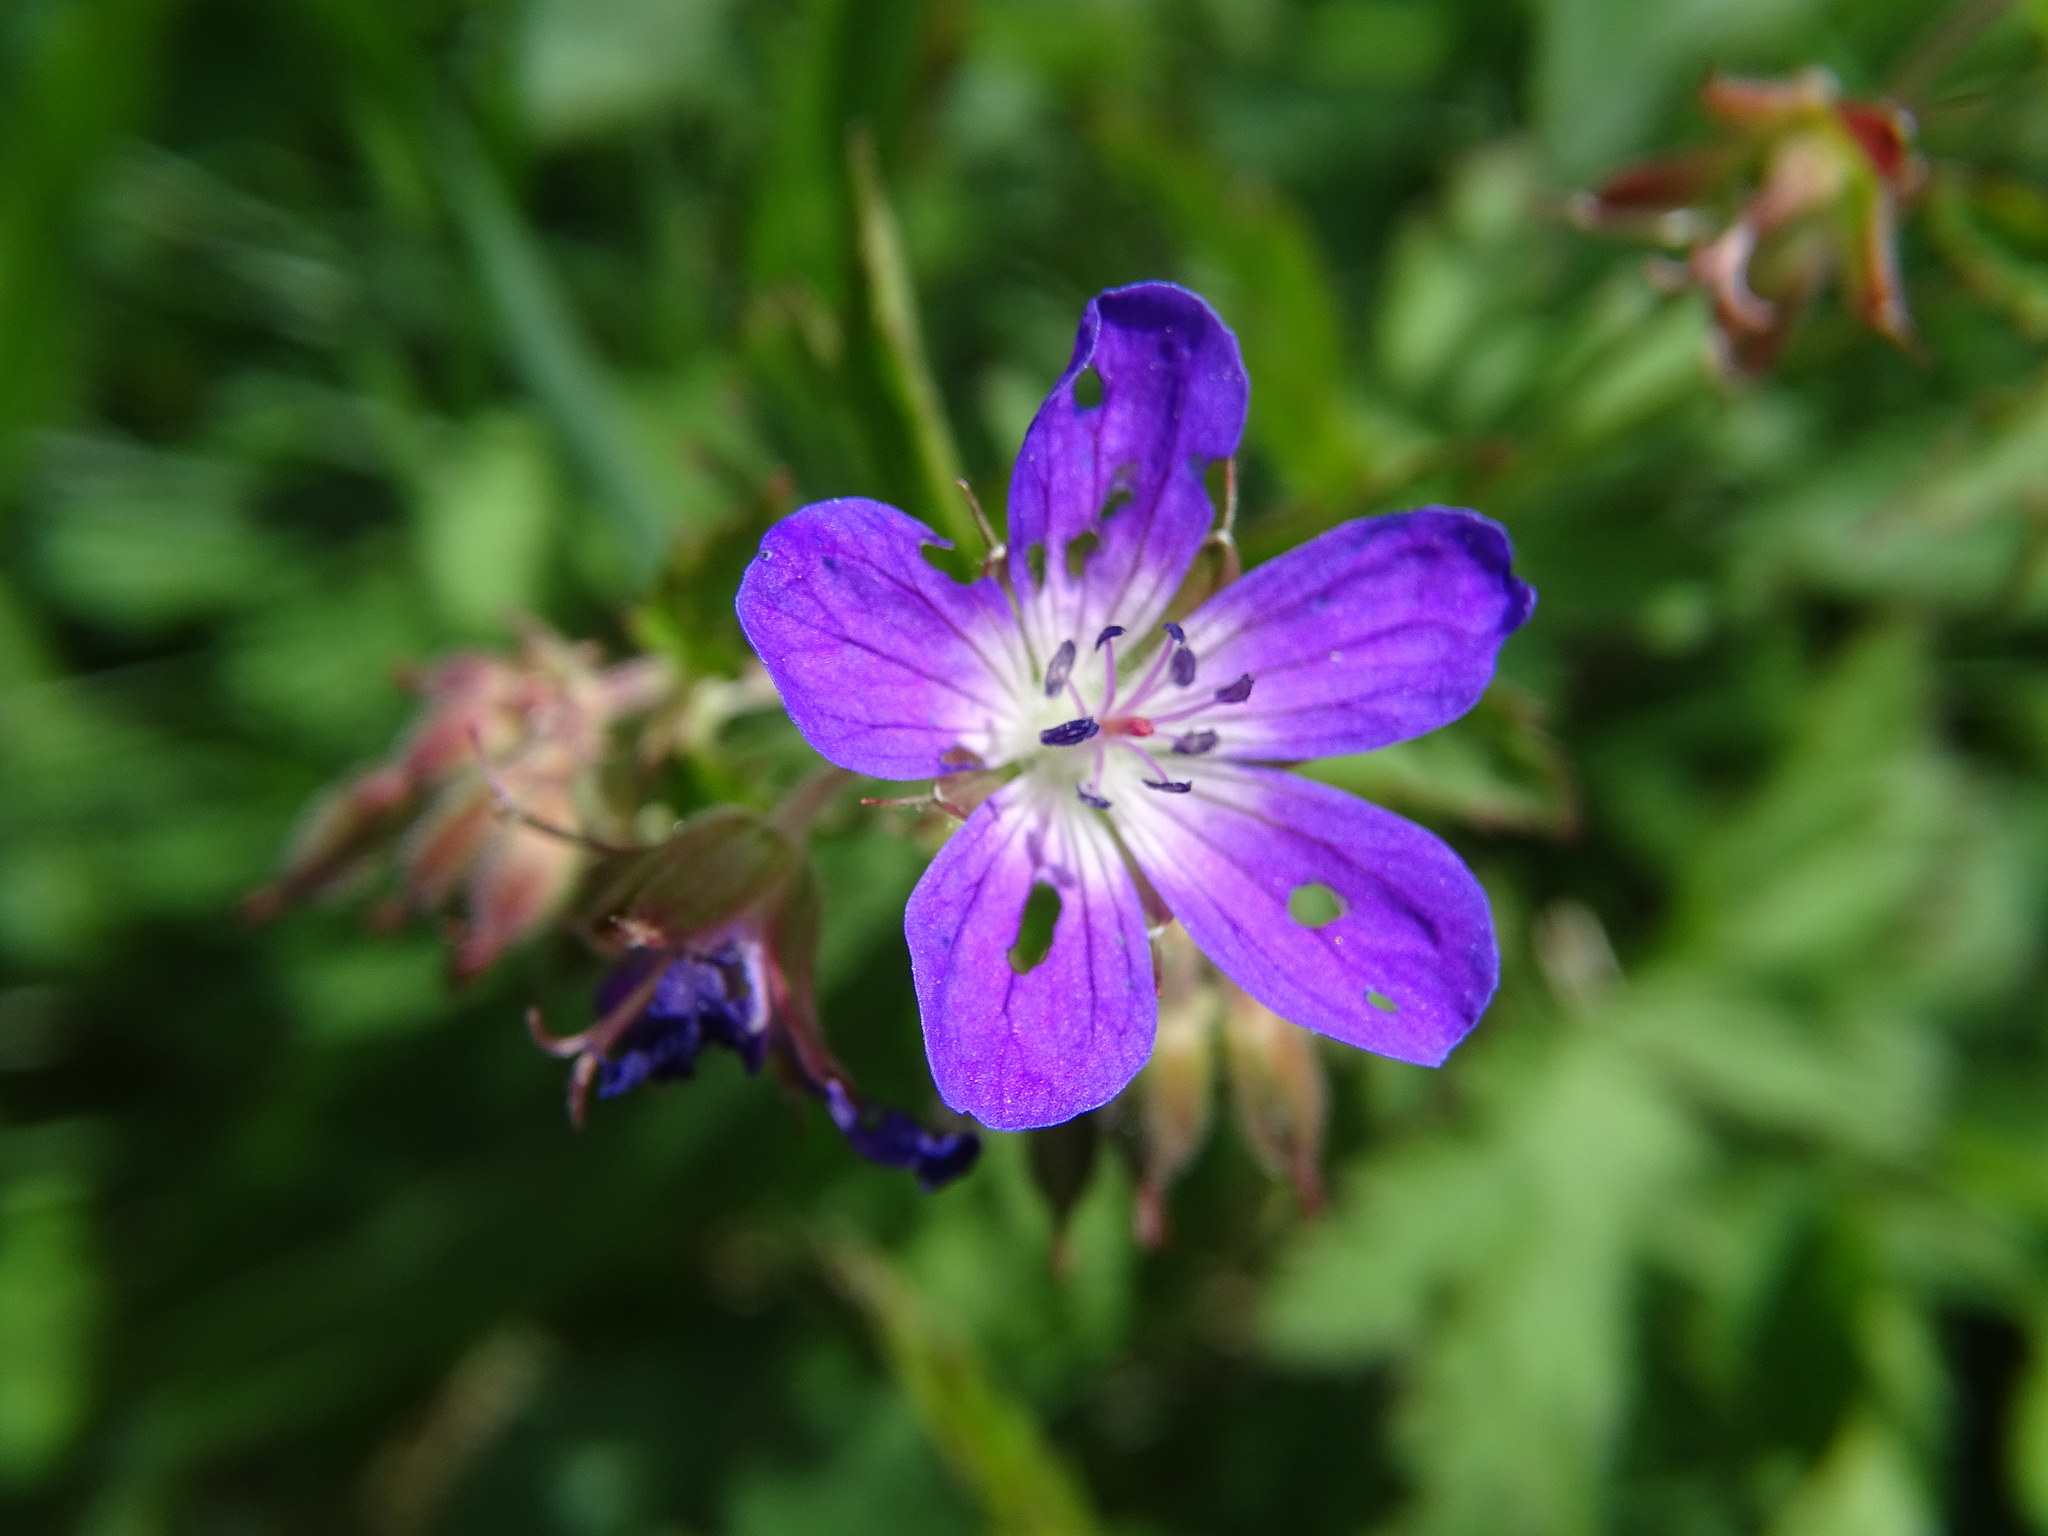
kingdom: Plantae
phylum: Tracheophyta
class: Magnoliopsida
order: Geraniales
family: Geraniaceae
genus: Geranium
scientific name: Geranium sylvaticum
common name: Wood crane's-bill
